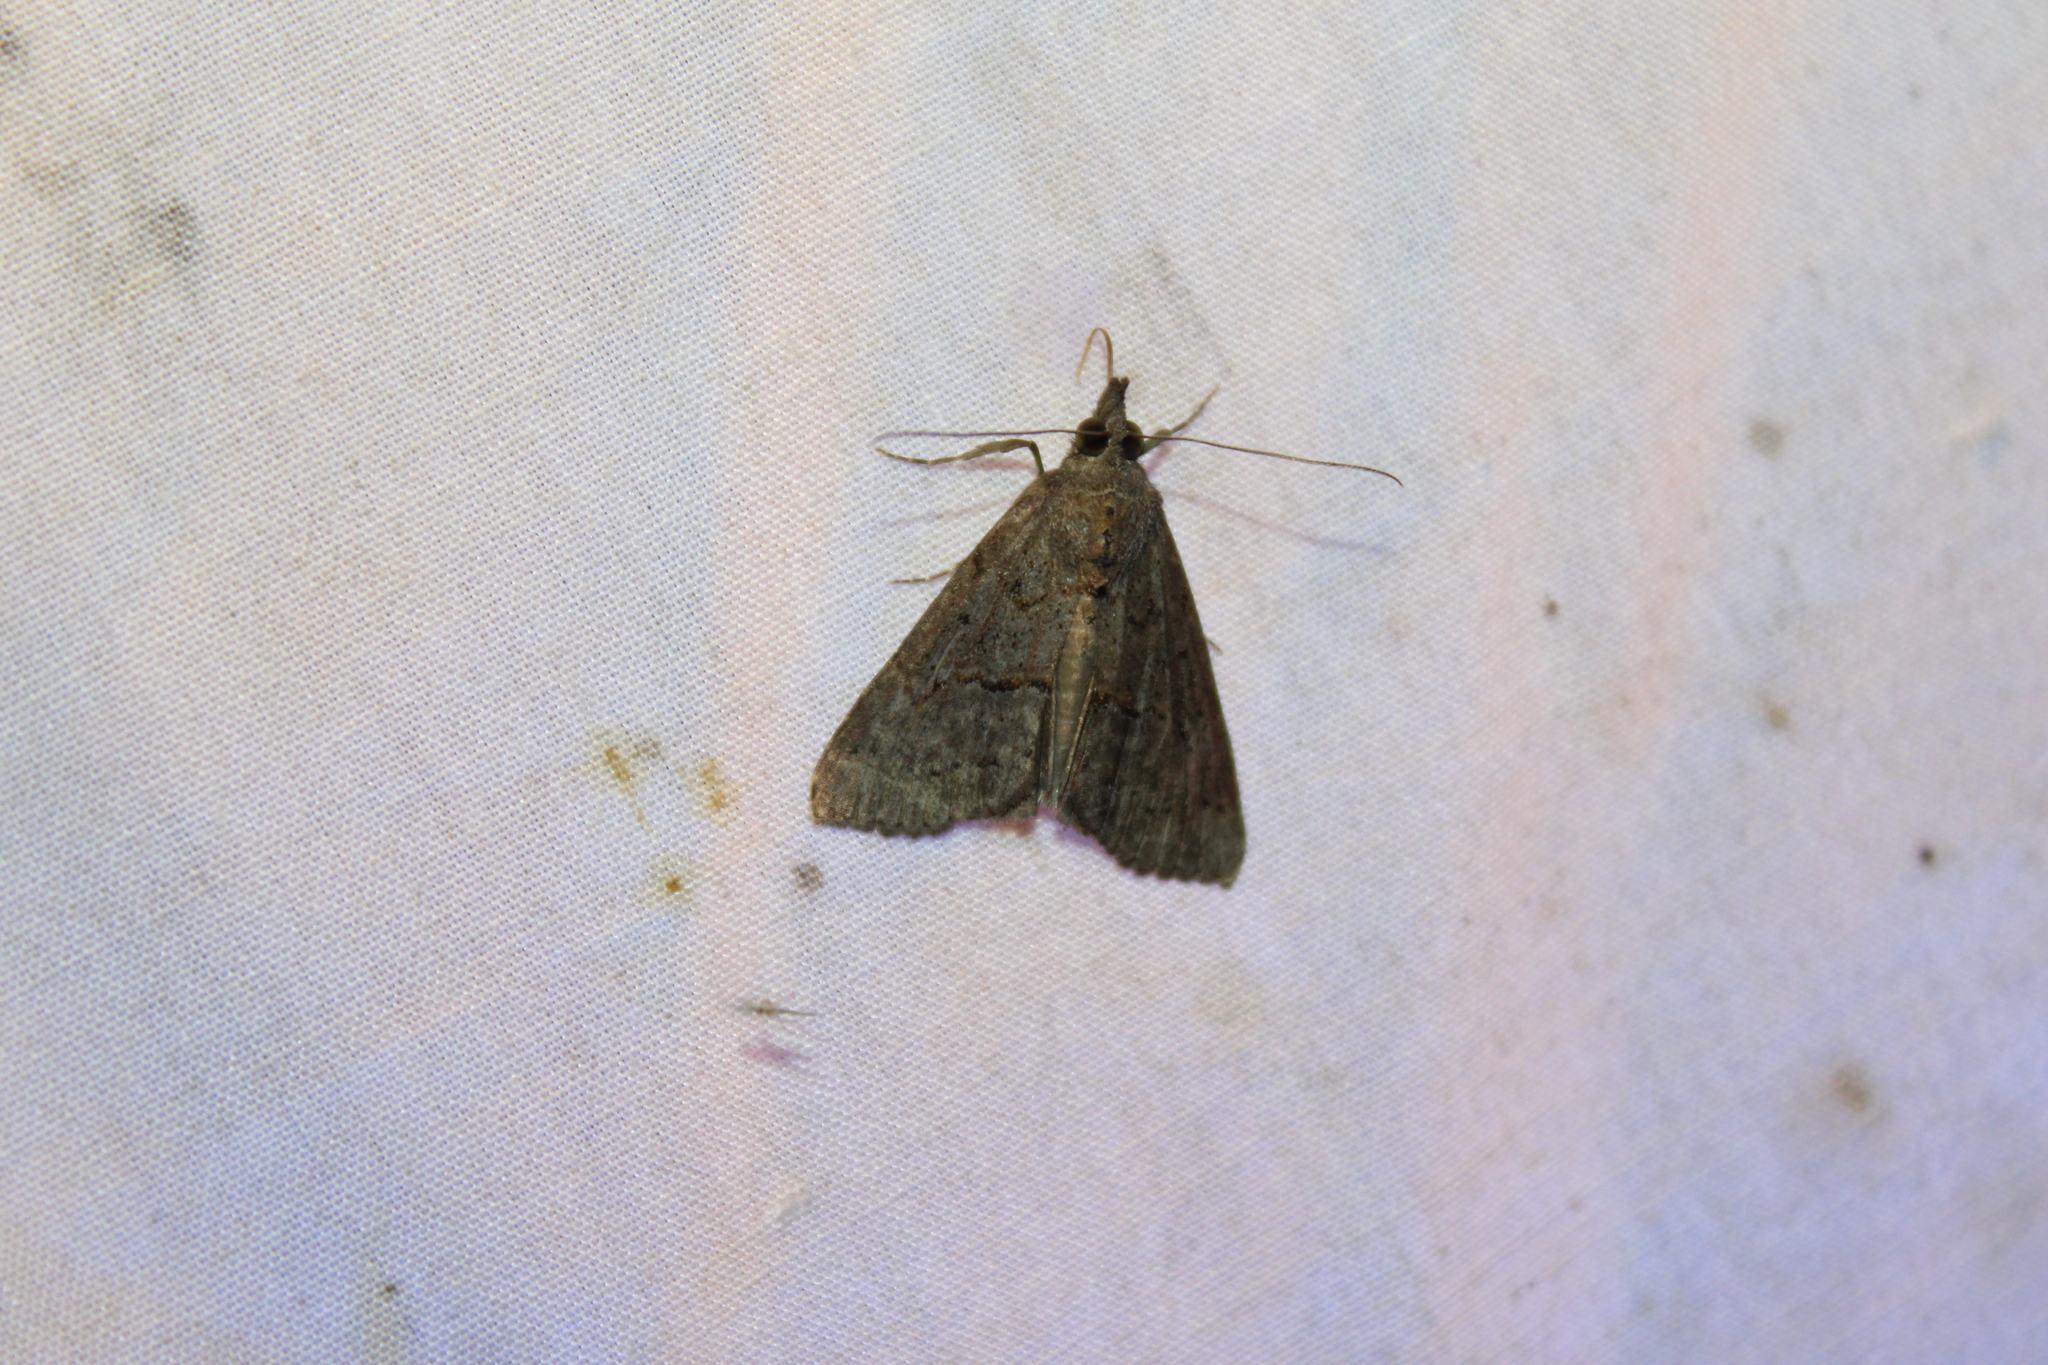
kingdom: Animalia
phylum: Arthropoda
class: Insecta
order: Lepidoptera
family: Erebidae
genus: Hypena
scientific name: Hypena scabra
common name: Green cloverworm
